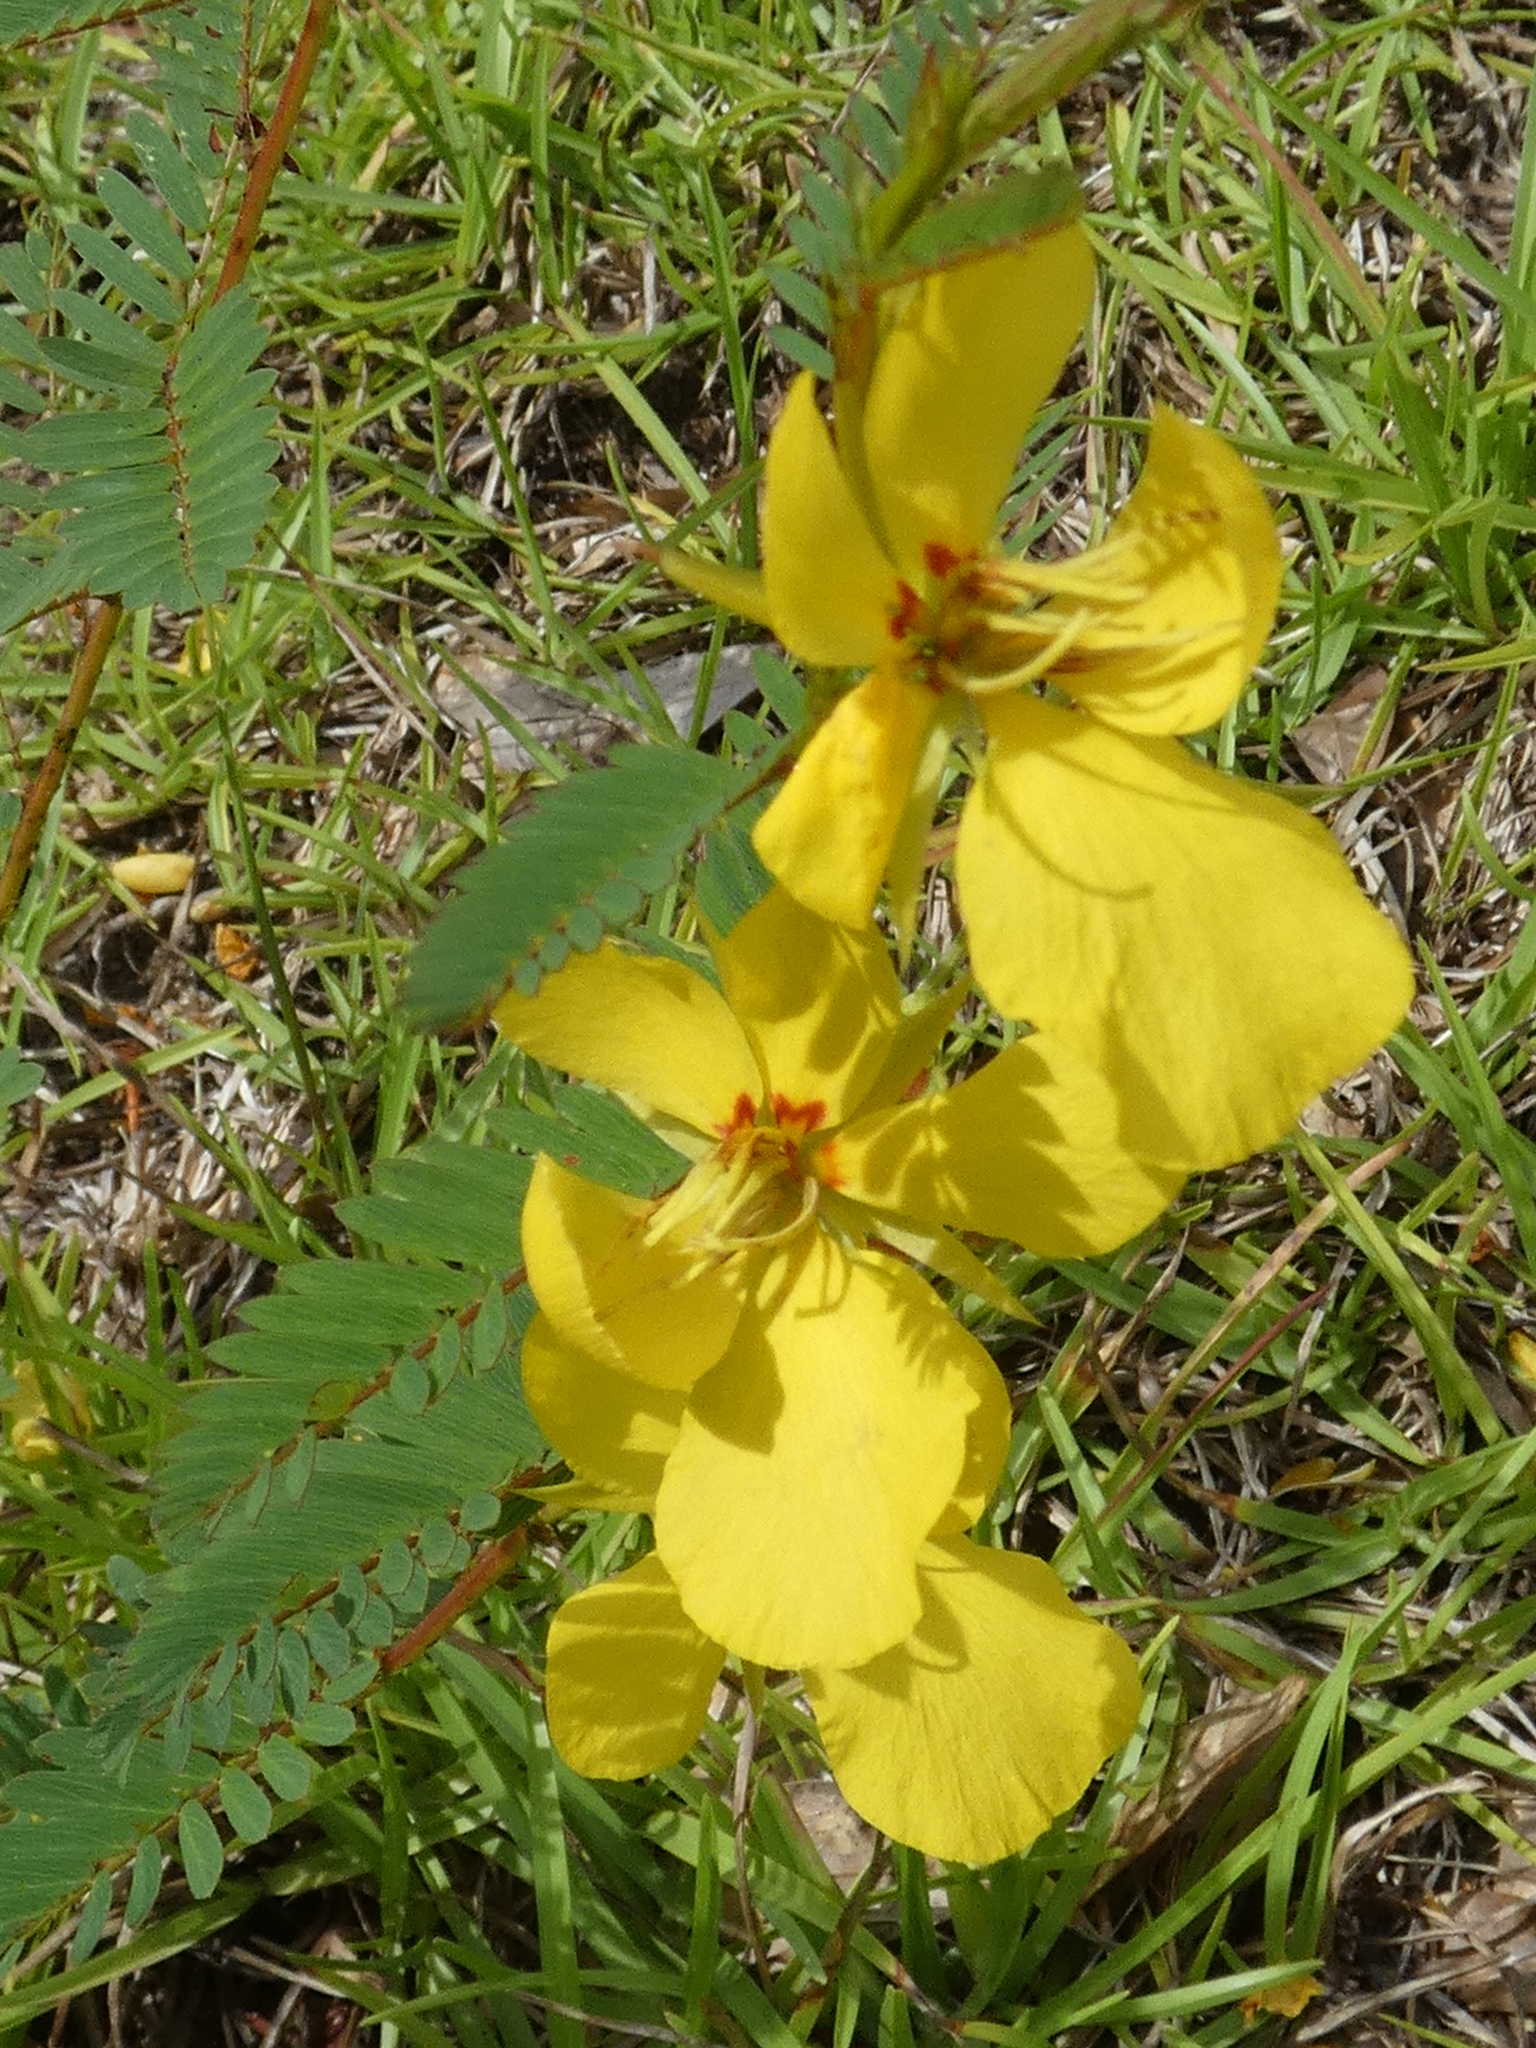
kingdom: Plantae
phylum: Tracheophyta
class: Magnoliopsida
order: Fabales
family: Fabaceae
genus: Chamaecrista
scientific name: Chamaecrista fasciculata
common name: Golden cassia
